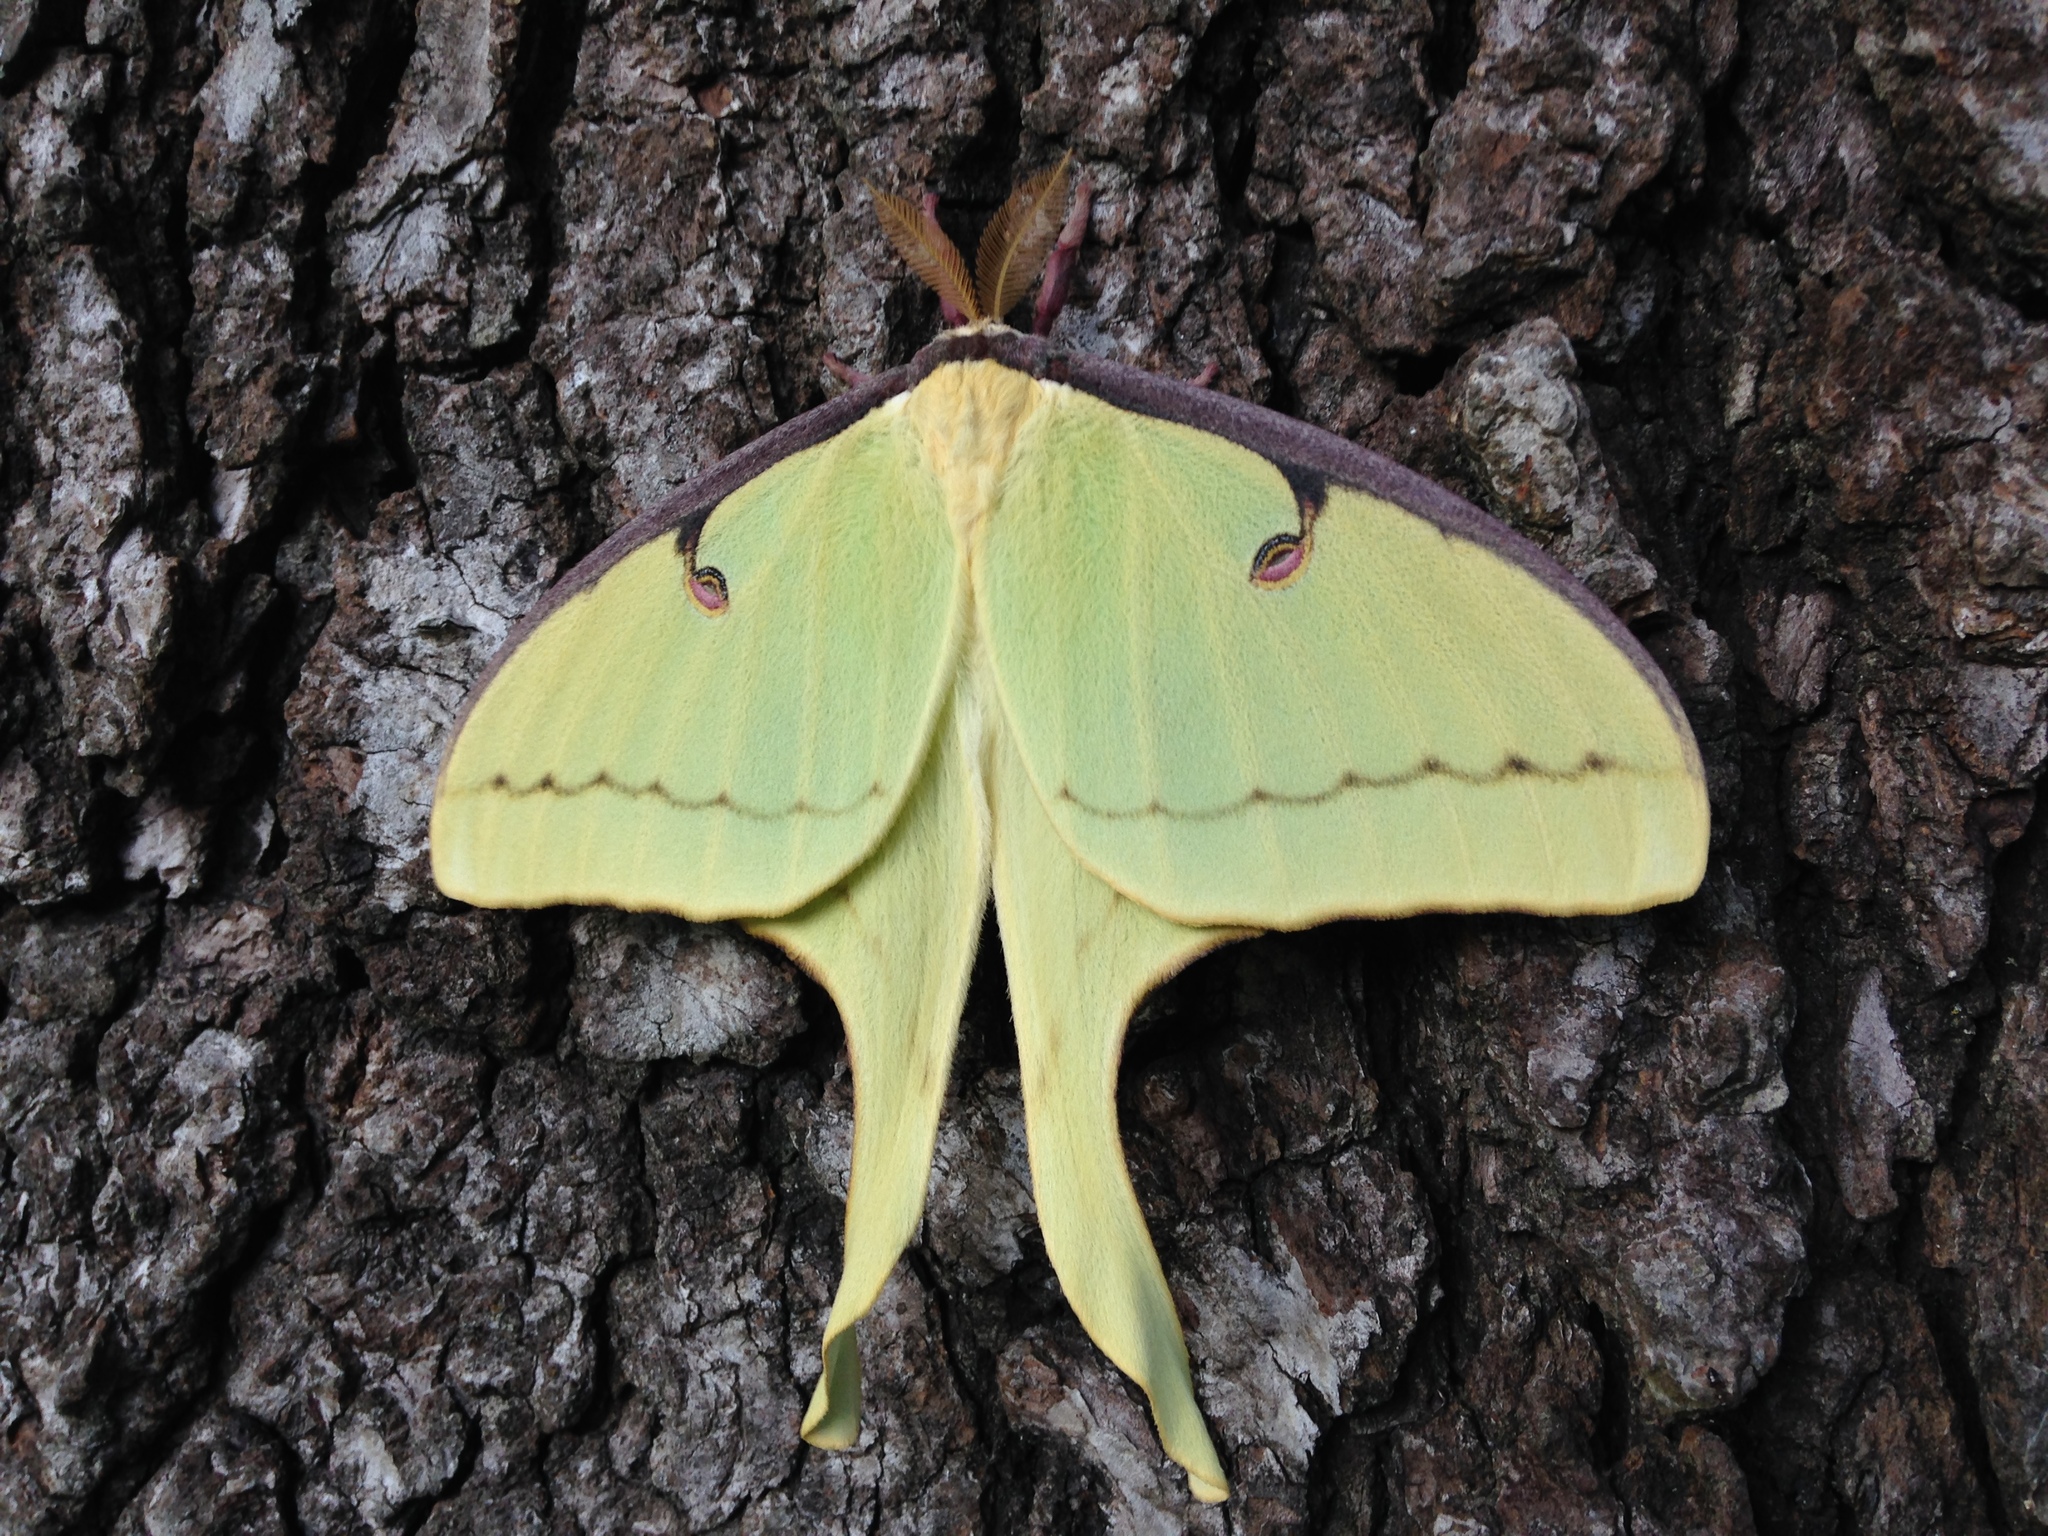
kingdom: Animalia
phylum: Arthropoda
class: Insecta
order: Lepidoptera
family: Saturniidae
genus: Actias
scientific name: Actias luna
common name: Luna moth
